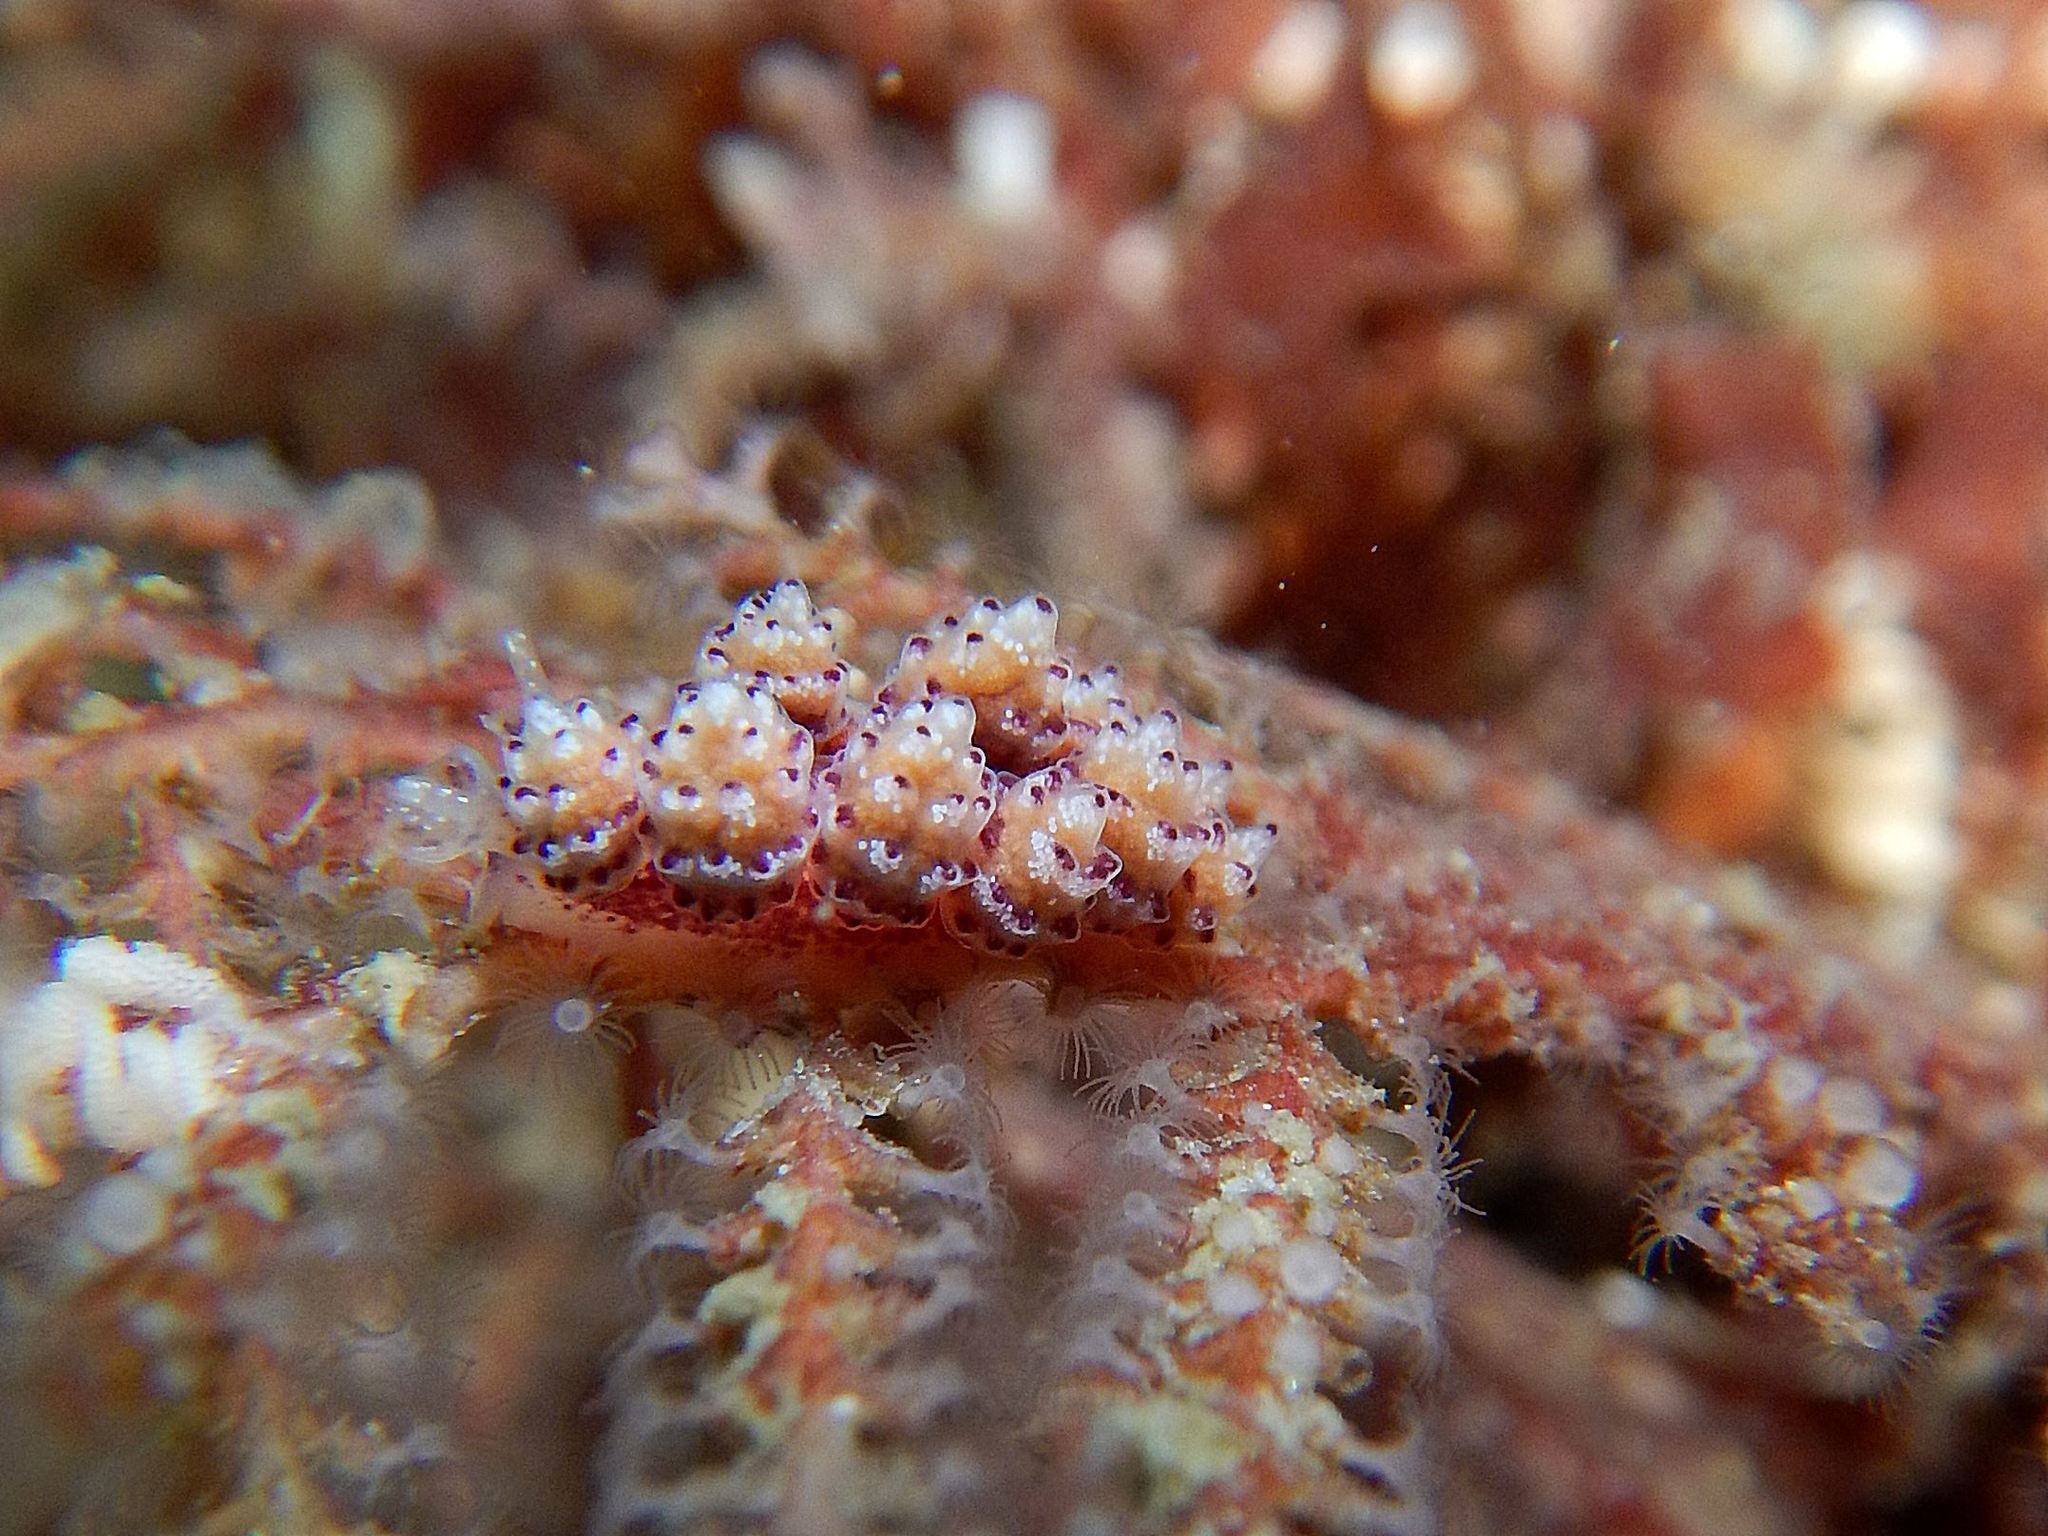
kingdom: Animalia
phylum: Mollusca
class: Gastropoda
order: Nudibranchia
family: Dotidae
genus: Doto
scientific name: Doto coronata
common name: Coronate doto
